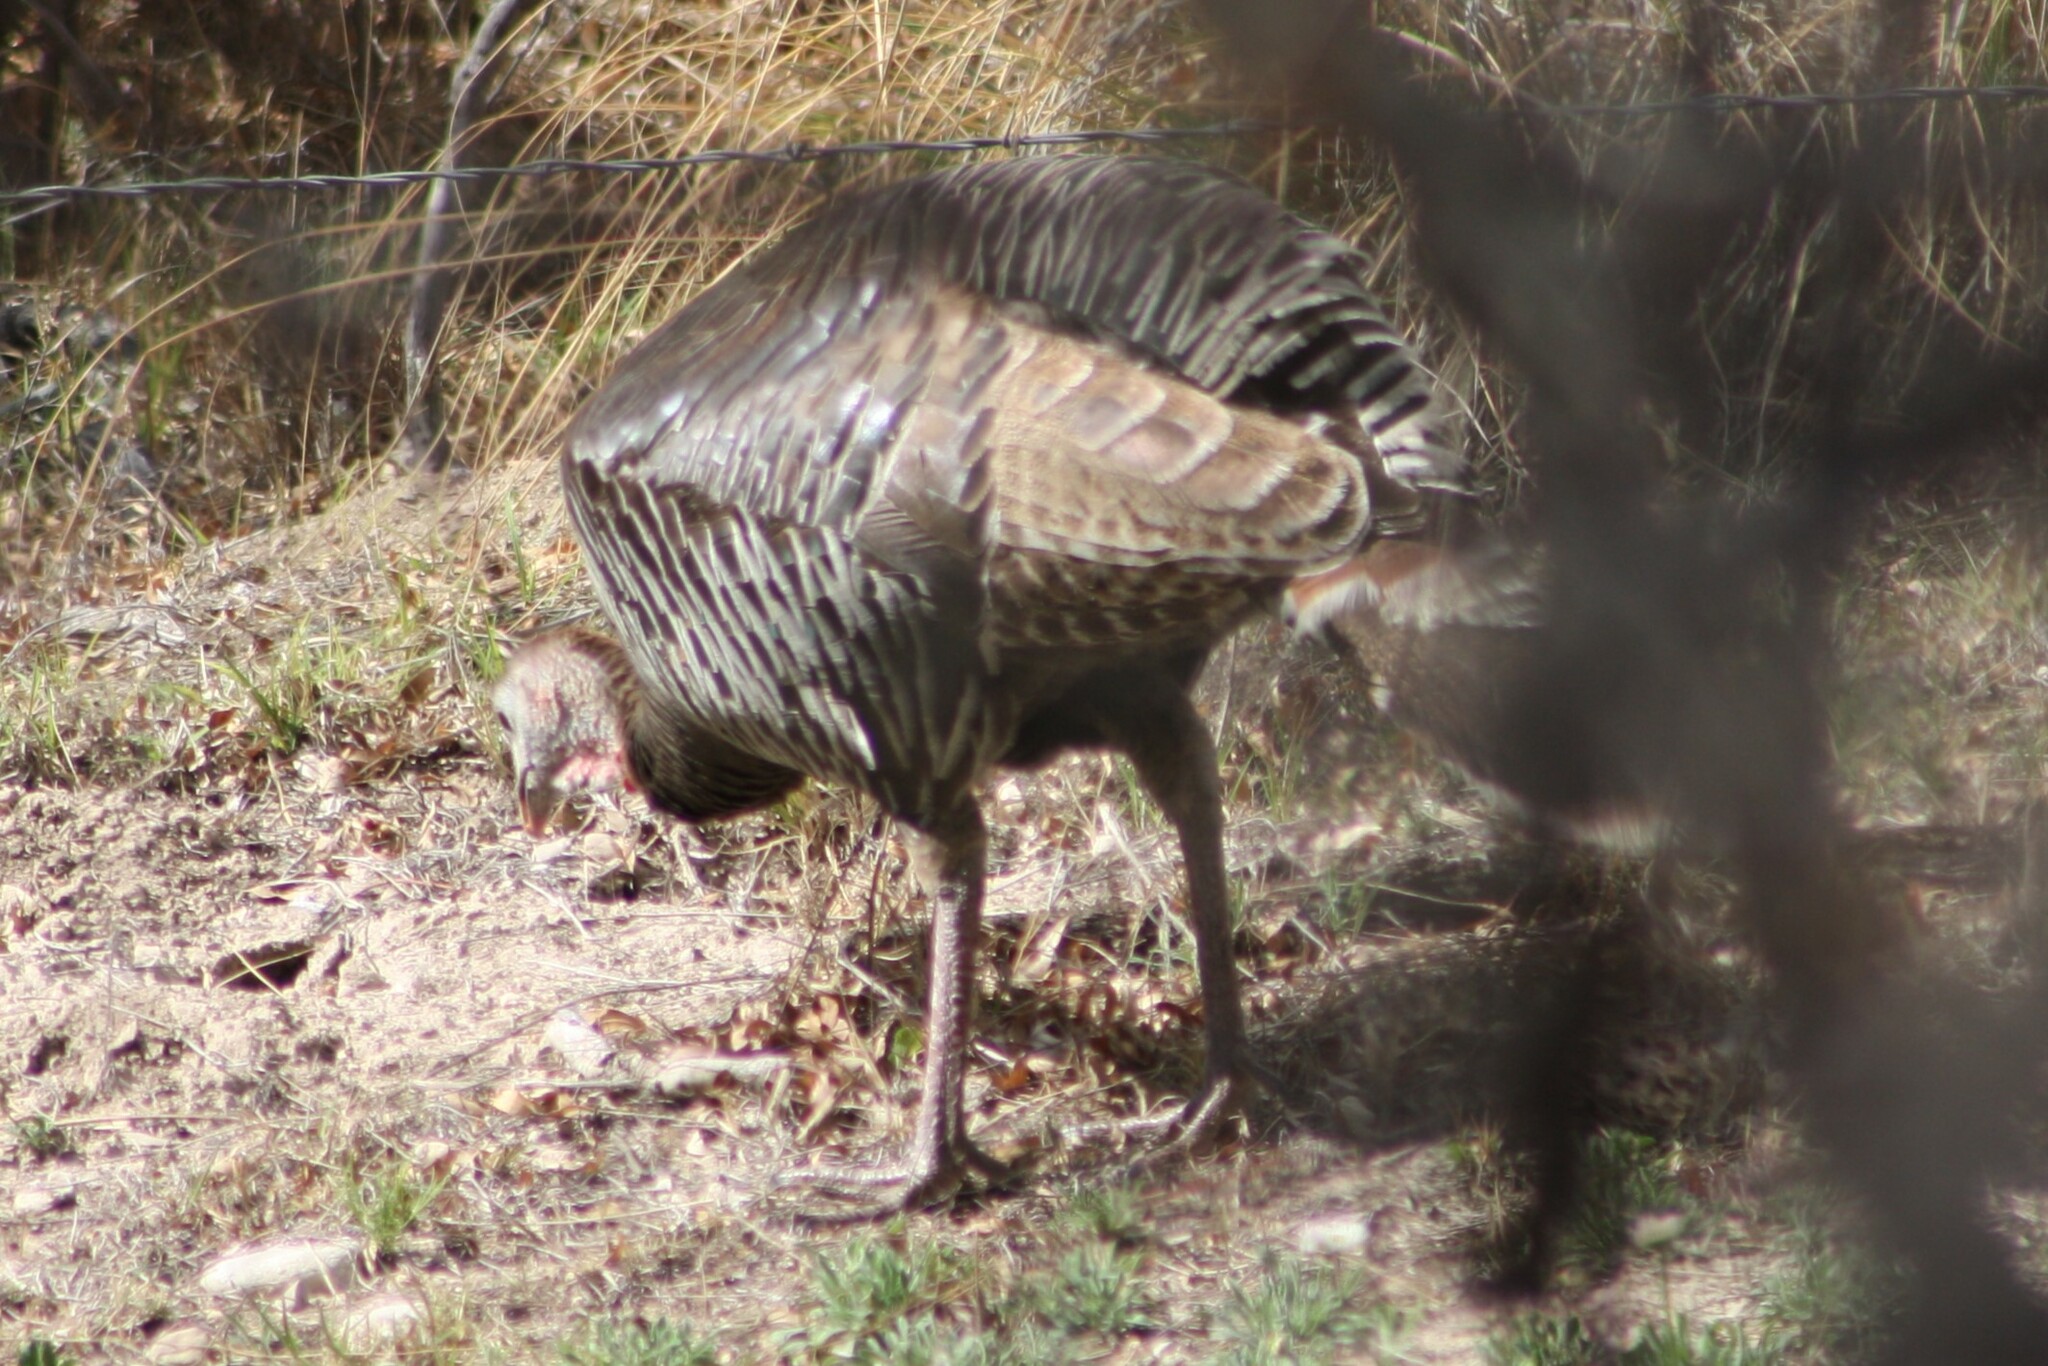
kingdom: Animalia
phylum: Chordata
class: Aves
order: Galliformes
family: Phasianidae
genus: Meleagris
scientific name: Meleagris gallopavo
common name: Wild turkey
